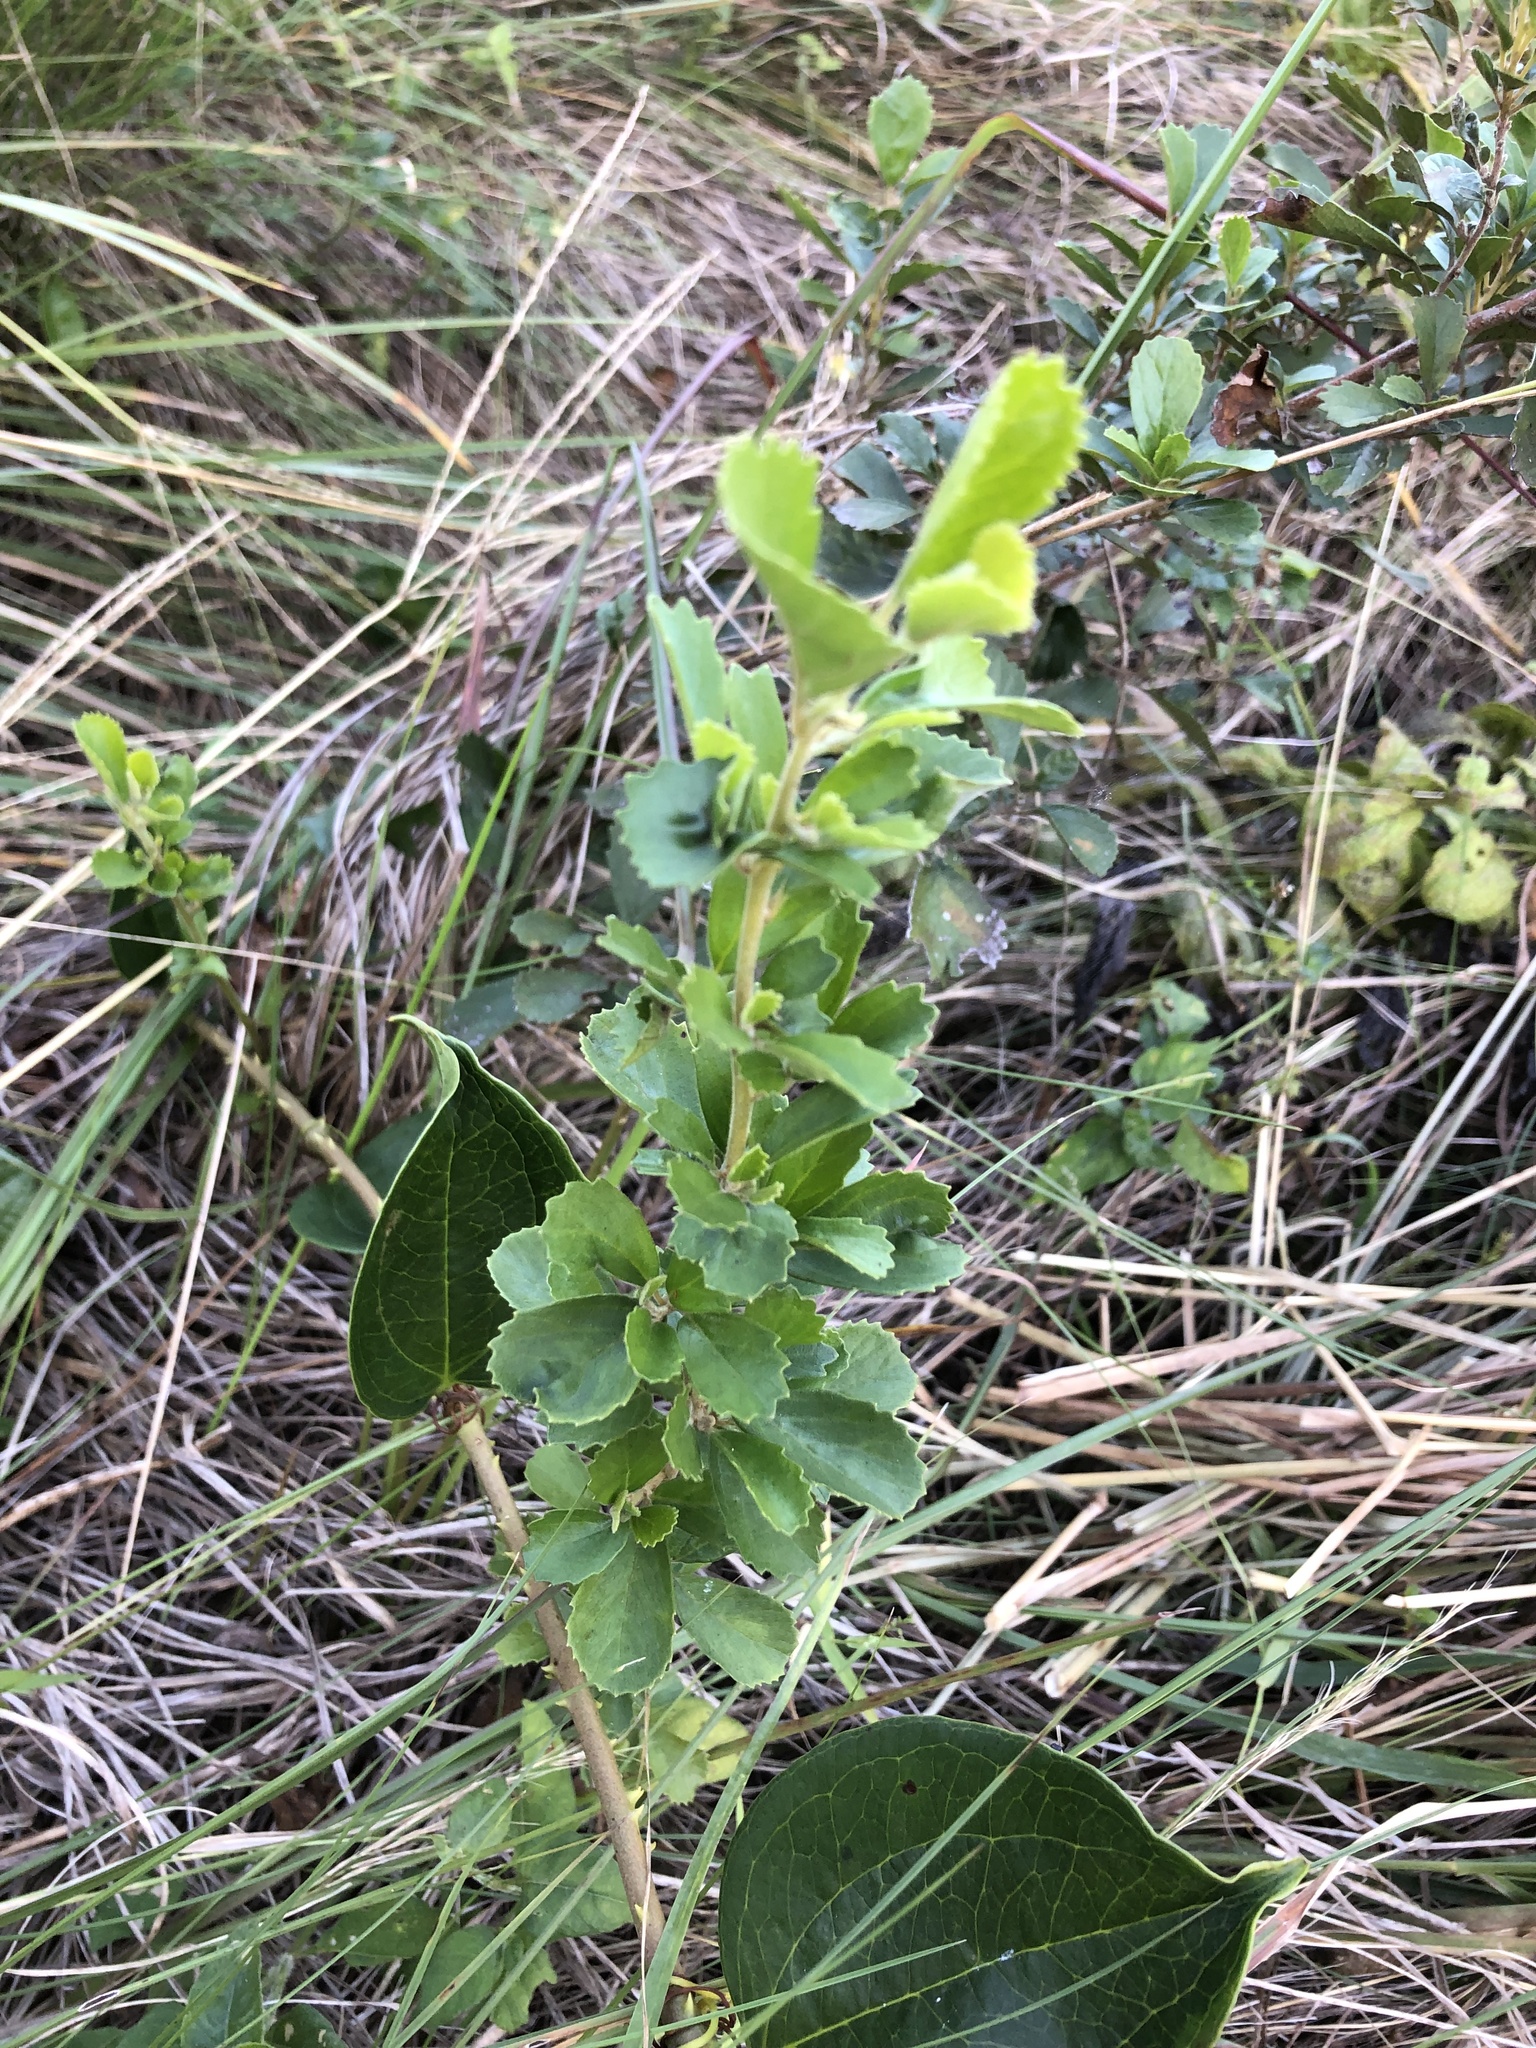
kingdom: Plantae
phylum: Tracheophyta
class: Magnoliopsida
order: Ericales
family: Primulaceae
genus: Maesa
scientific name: Maesa alnifolia
